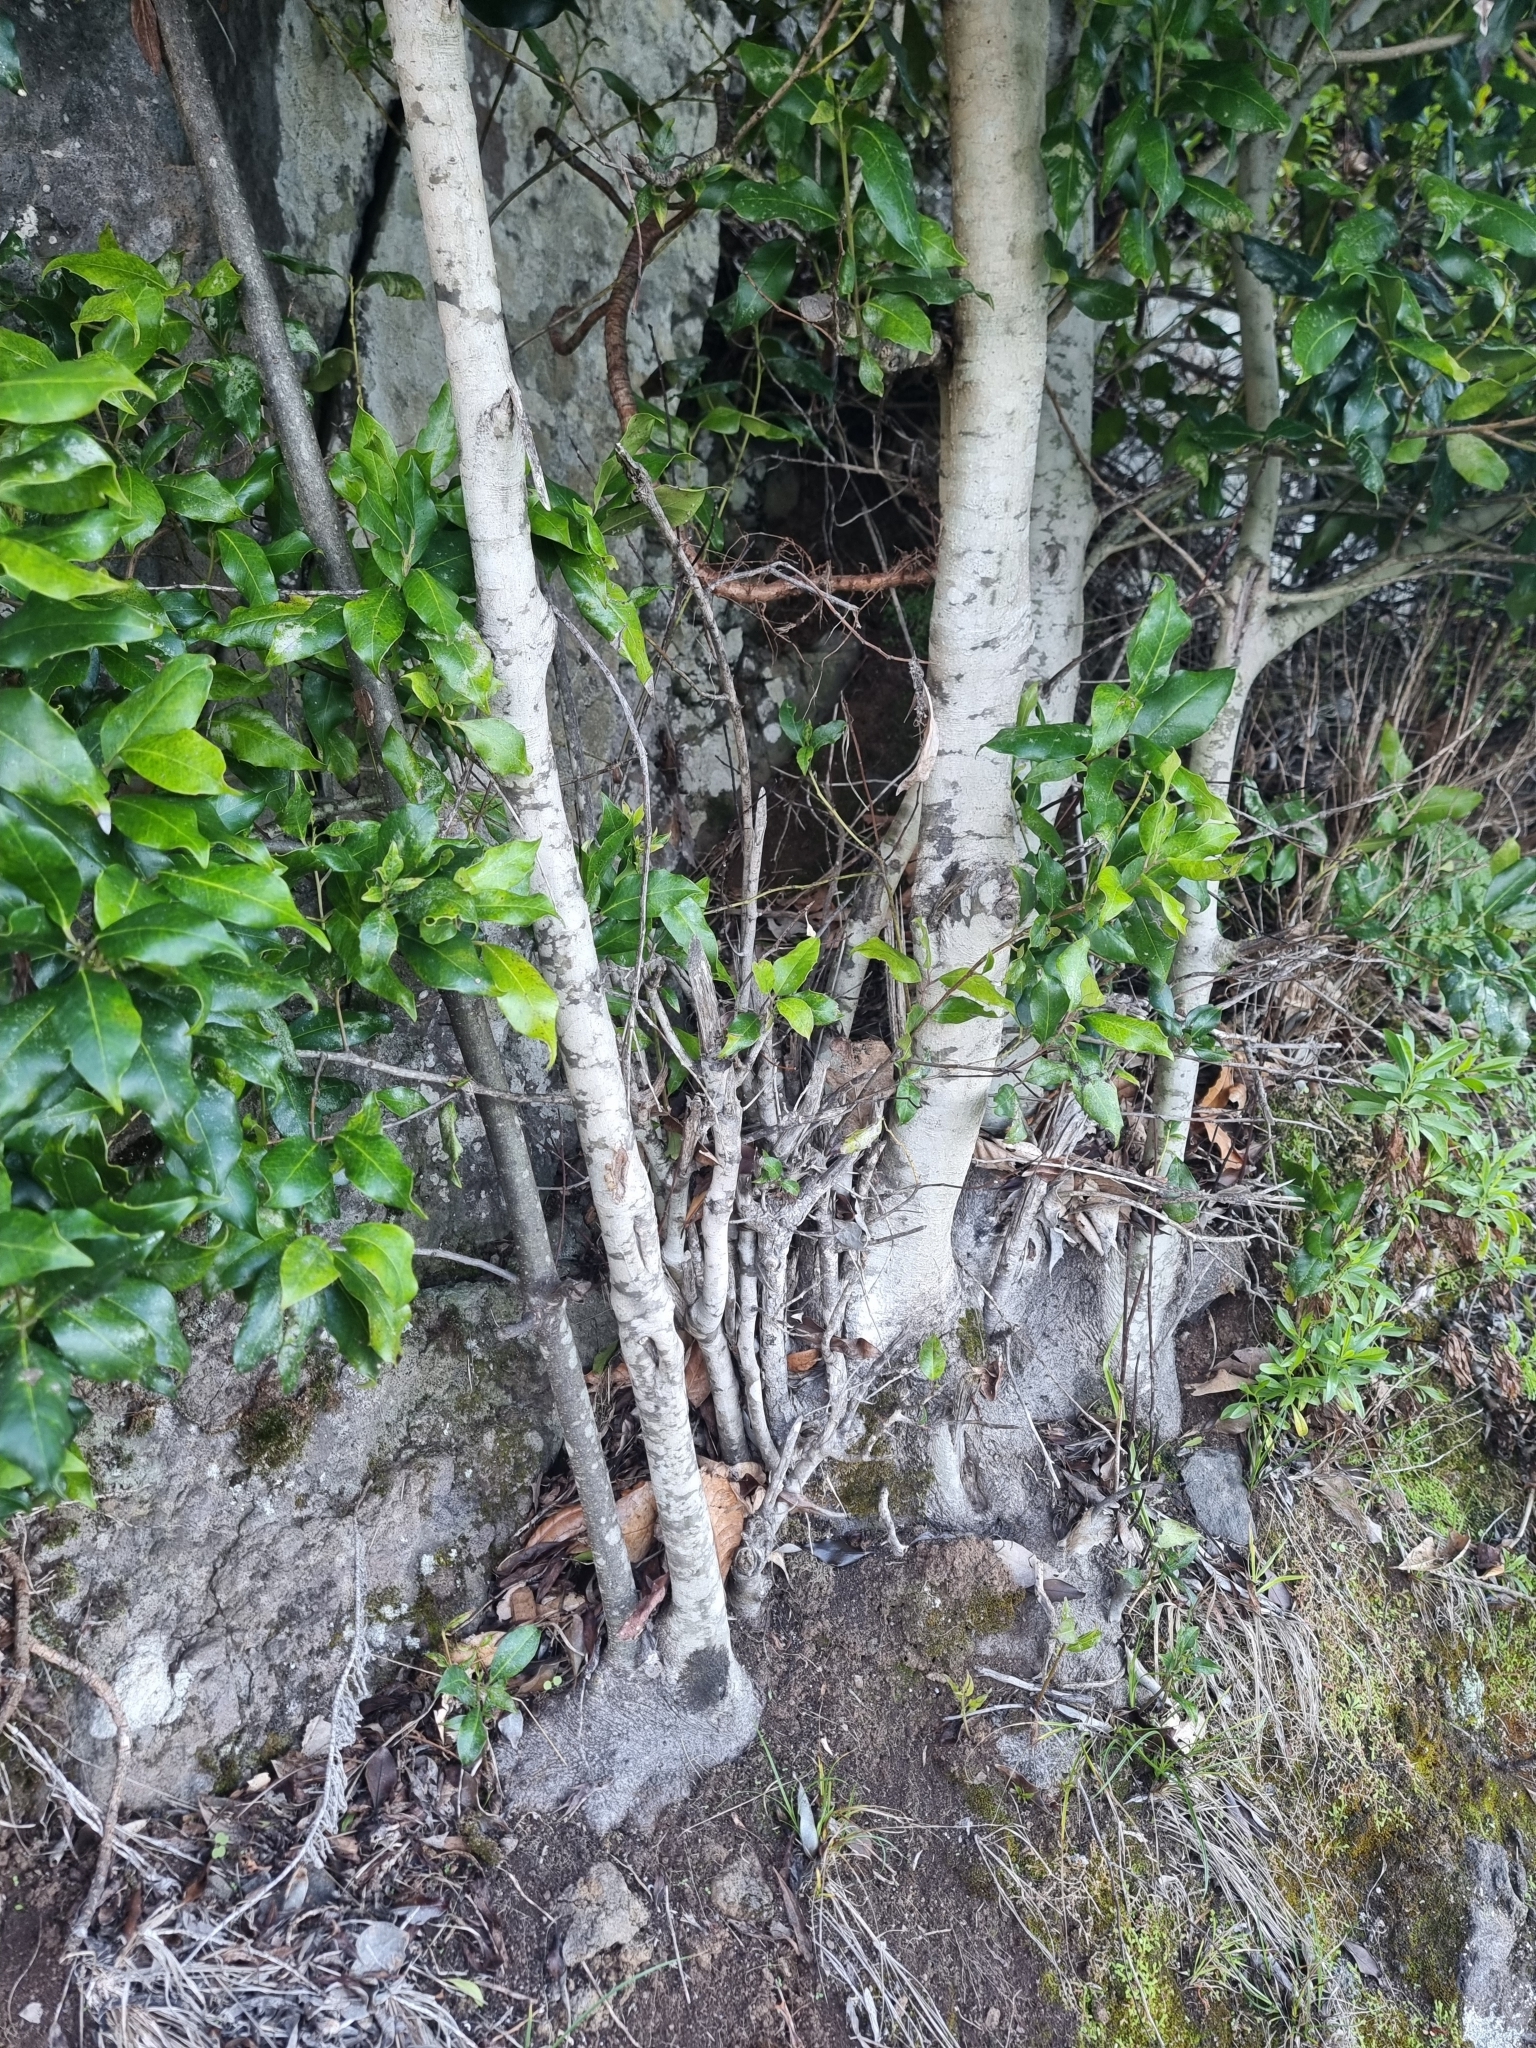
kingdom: Plantae
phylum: Tracheophyta
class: Magnoliopsida
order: Aquifoliales
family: Aquifoliaceae
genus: Ilex
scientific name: Ilex canariensis
